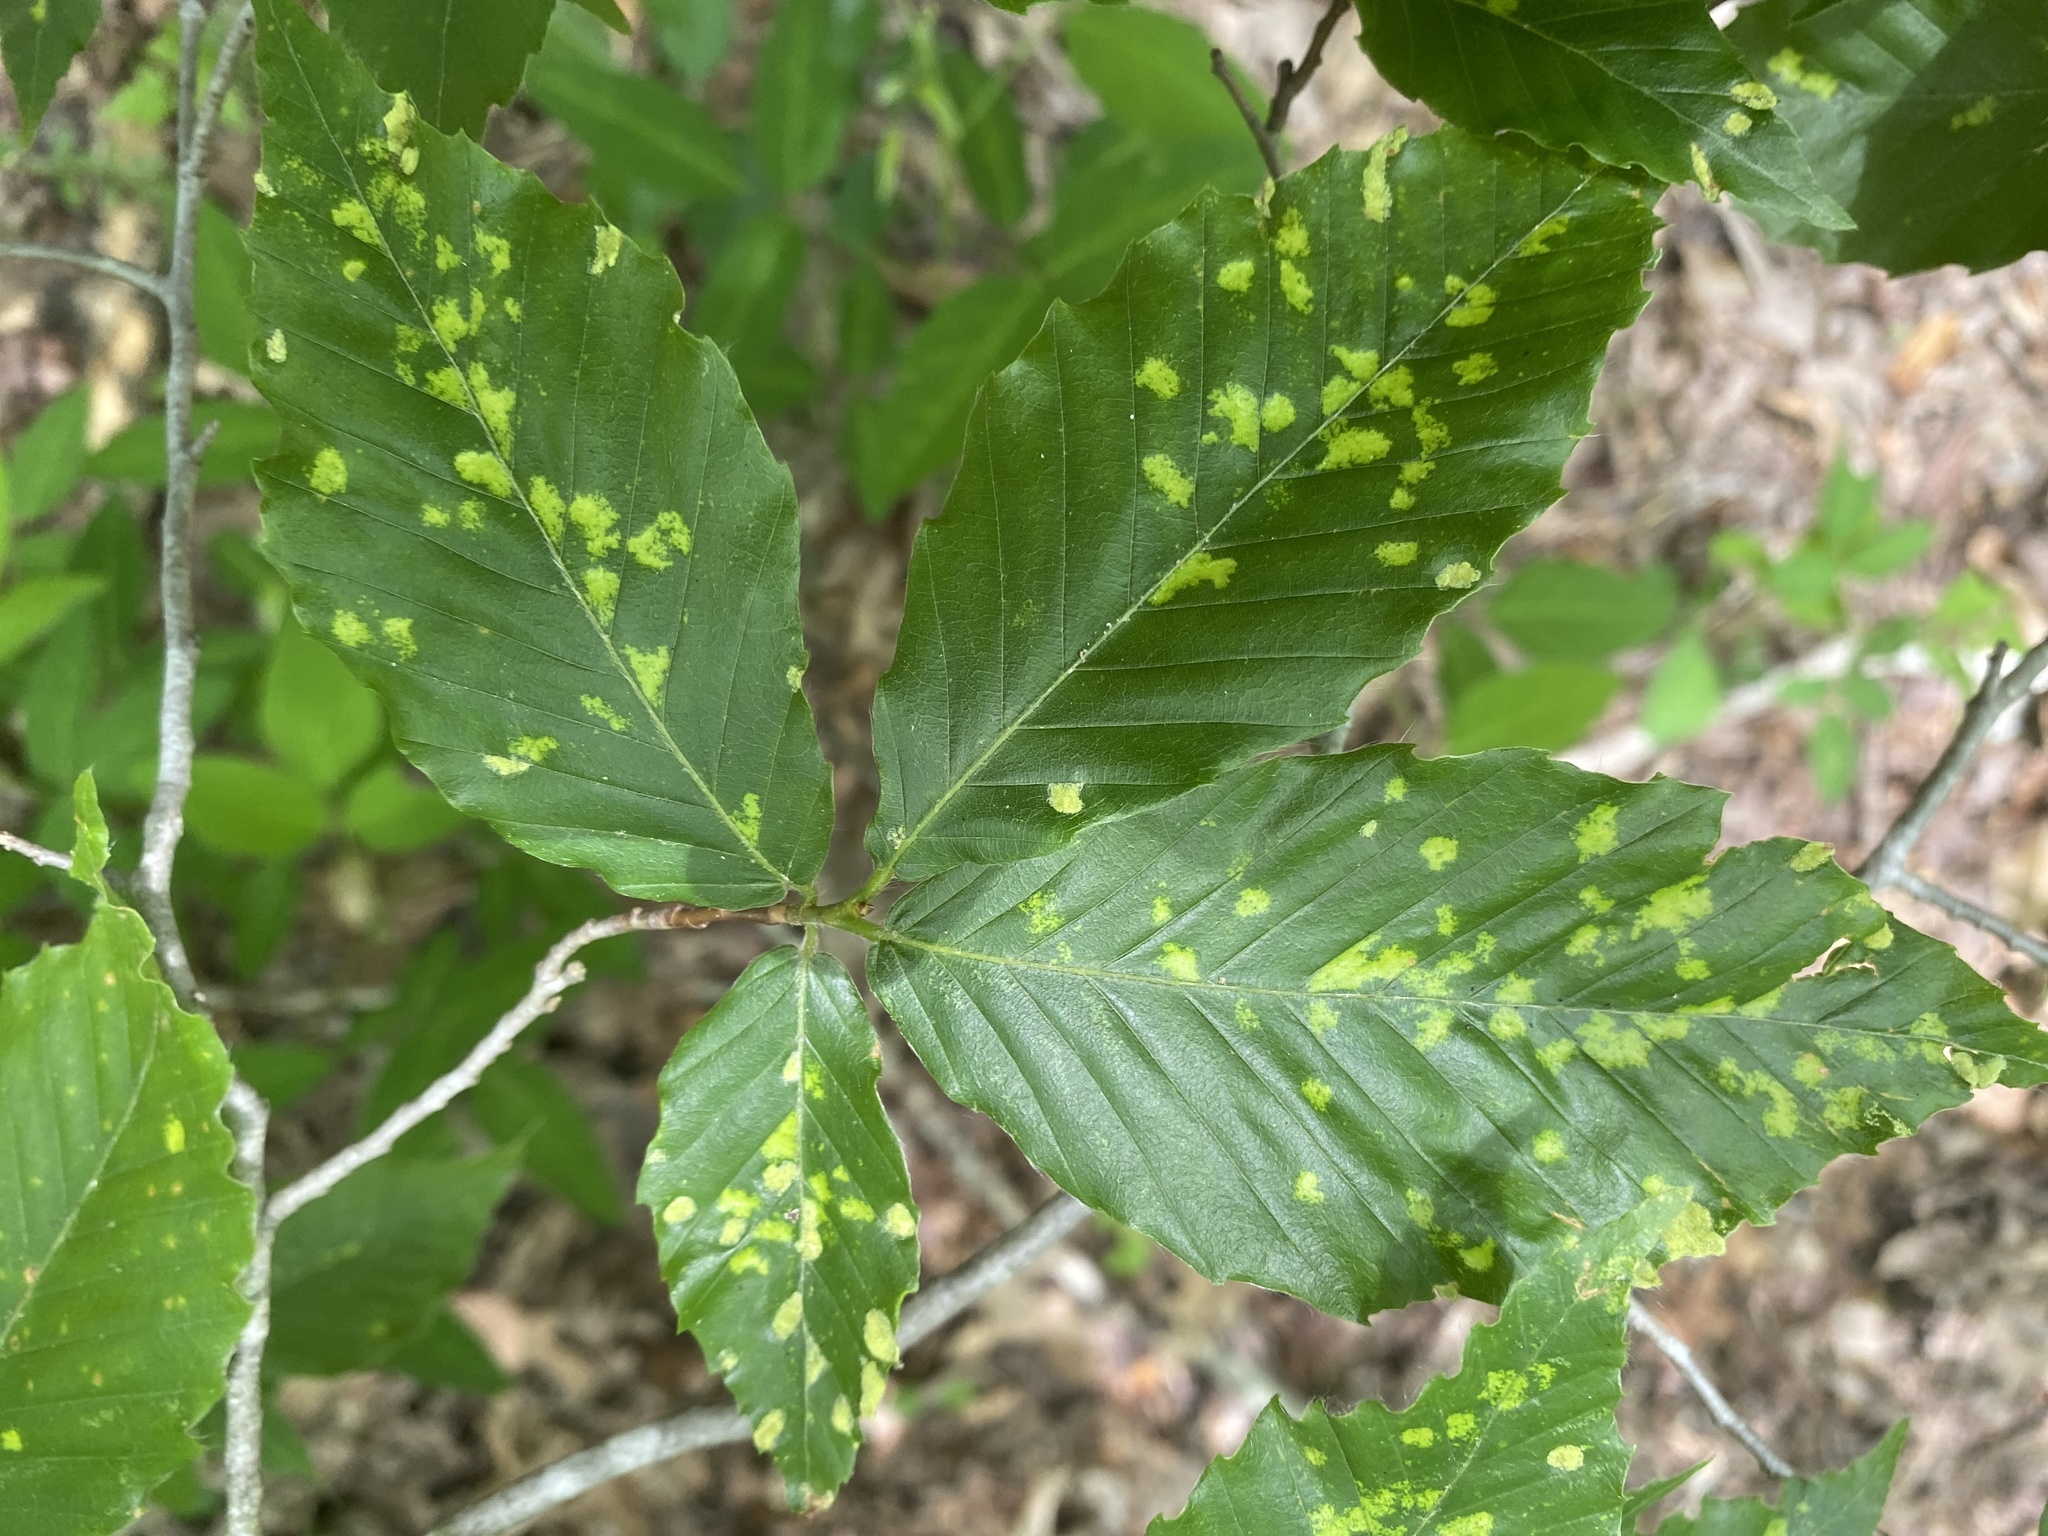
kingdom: Animalia
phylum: Arthropoda
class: Arachnida
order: Trombidiformes
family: Eriophyidae
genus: Acalitus
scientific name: Acalitus
